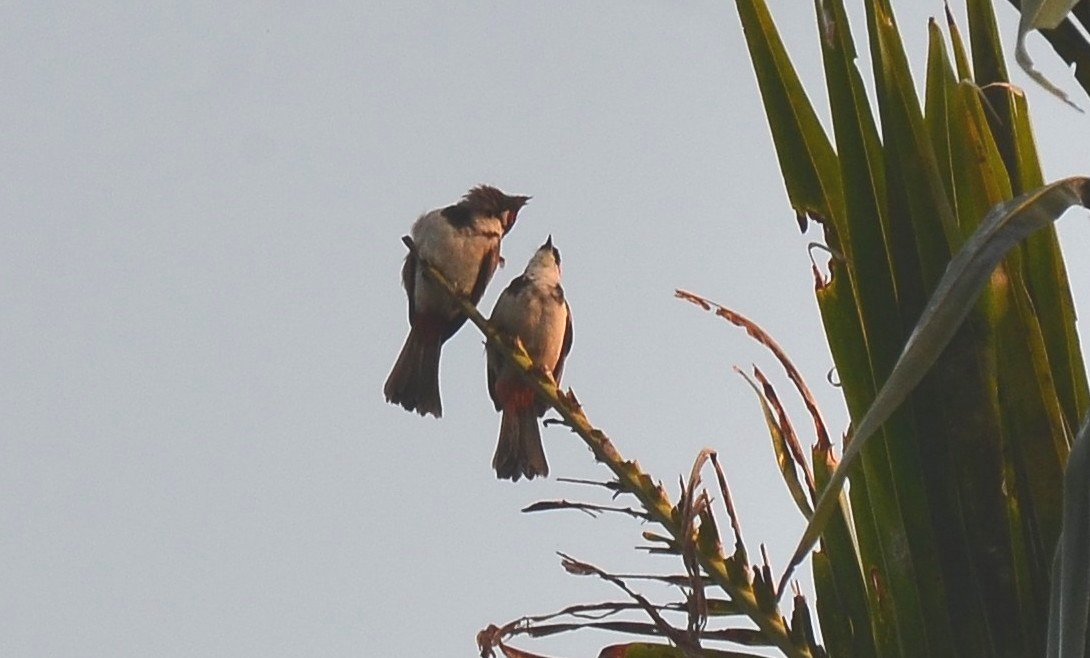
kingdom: Animalia
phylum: Chordata
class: Aves
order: Passeriformes
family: Pycnonotidae
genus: Pycnonotus
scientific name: Pycnonotus jocosus
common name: Red-whiskered bulbul
